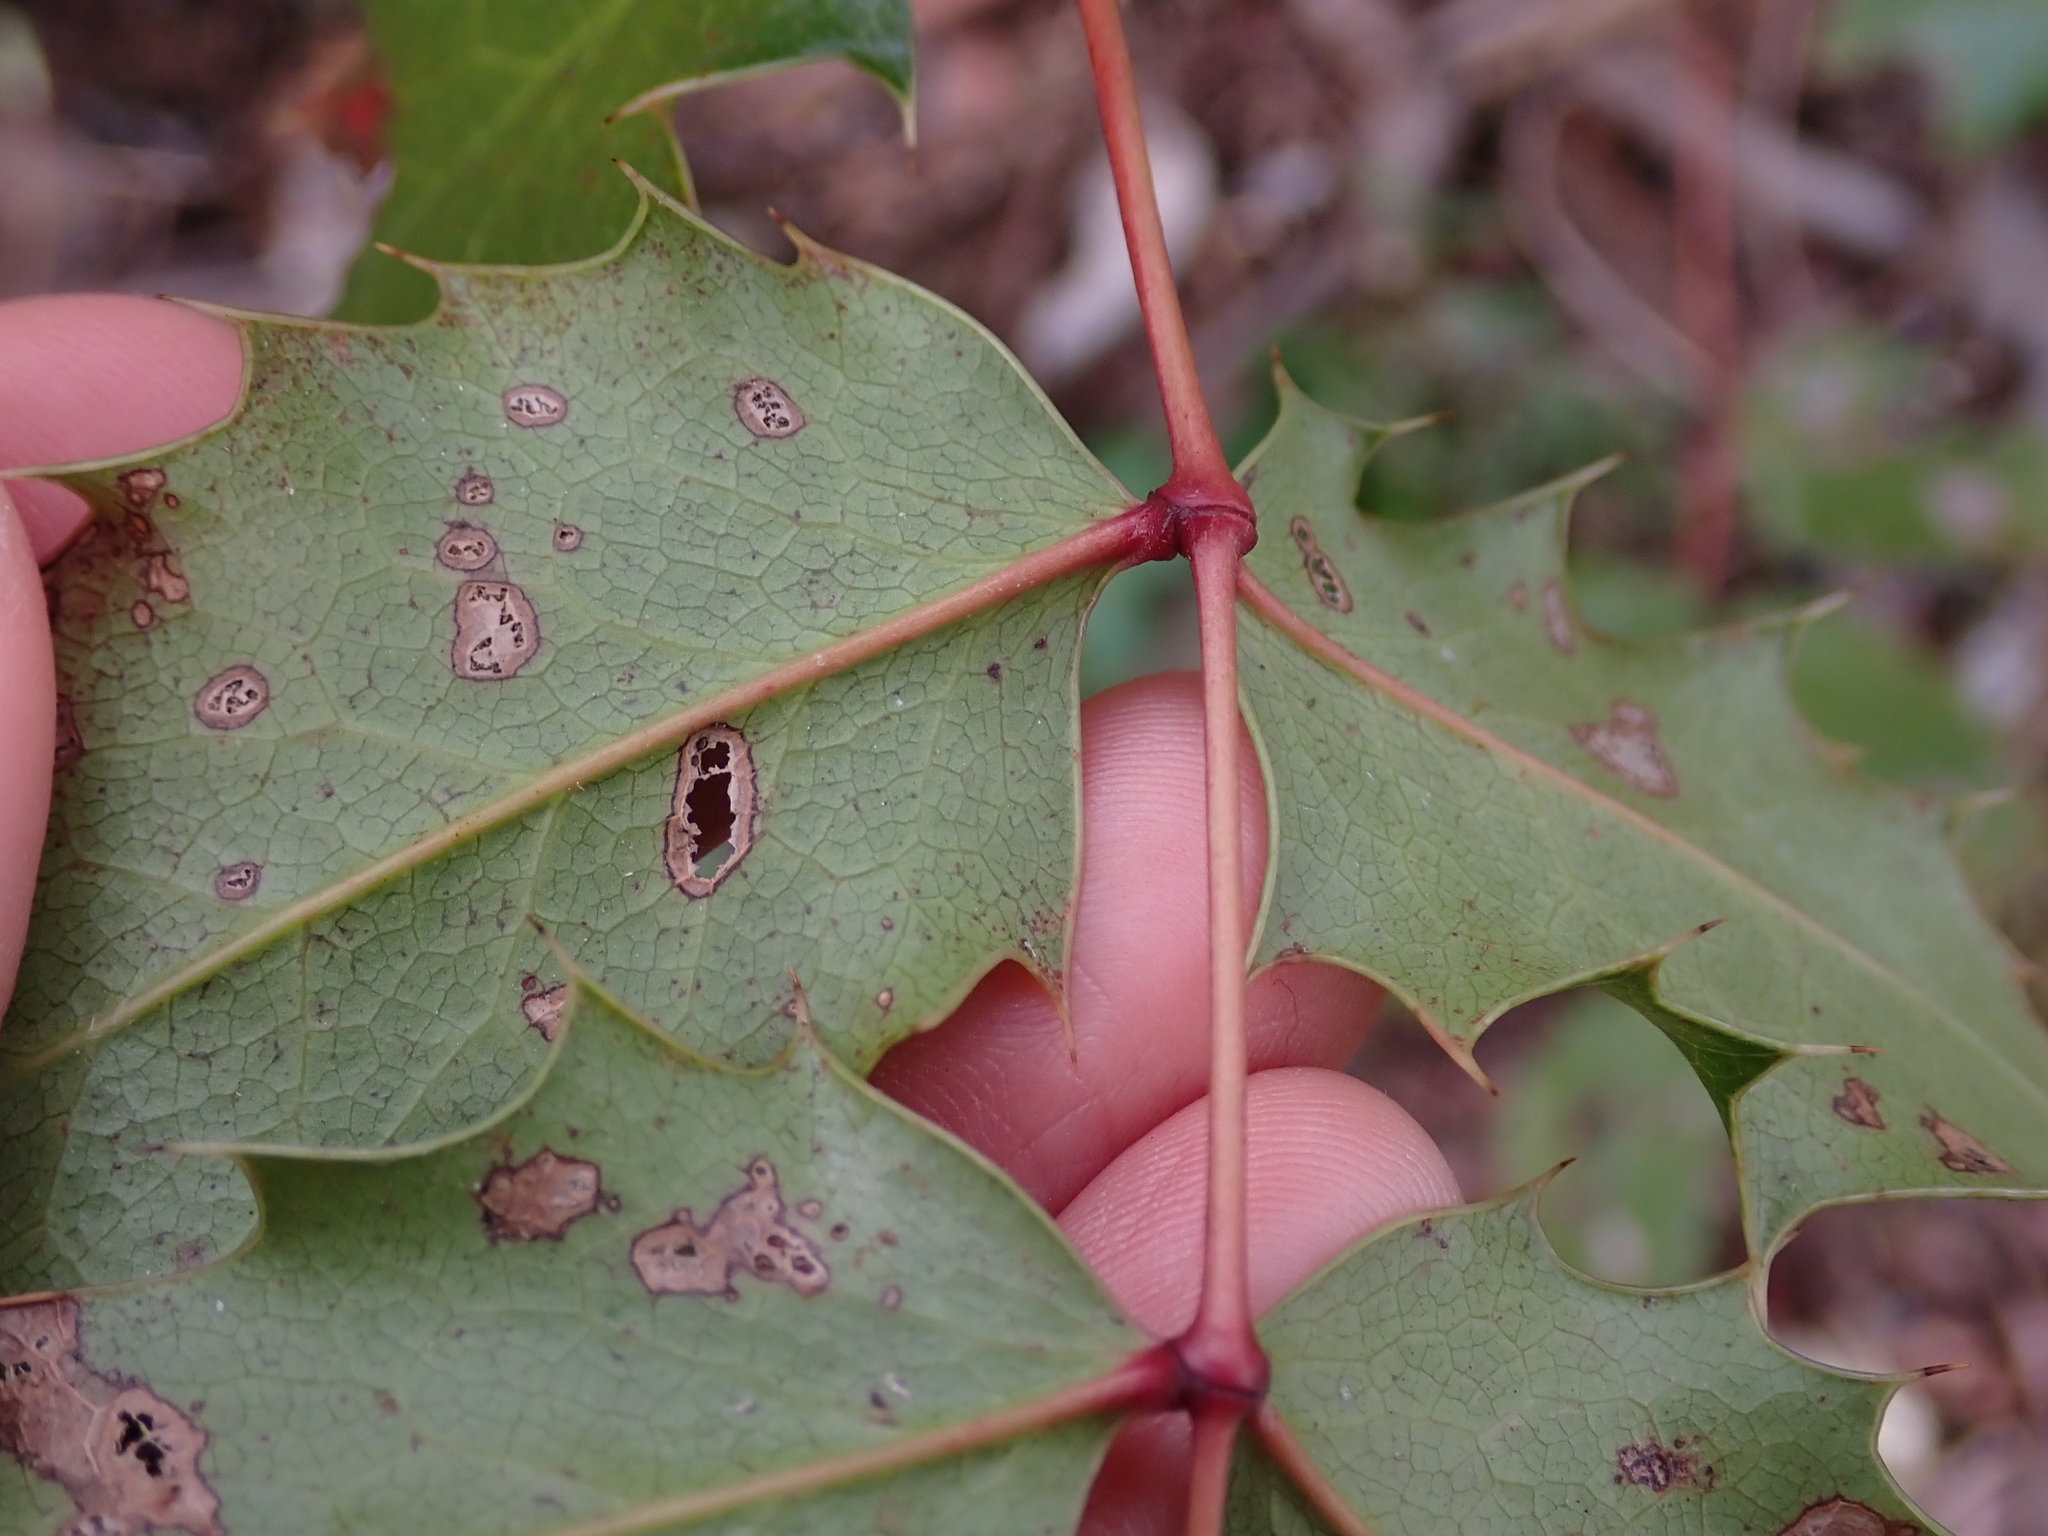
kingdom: Plantae
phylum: Tracheophyta
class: Magnoliopsida
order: Ranunculales
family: Berberidaceae
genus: Mahonia
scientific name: Mahonia aquifolium
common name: Oregon-grape
